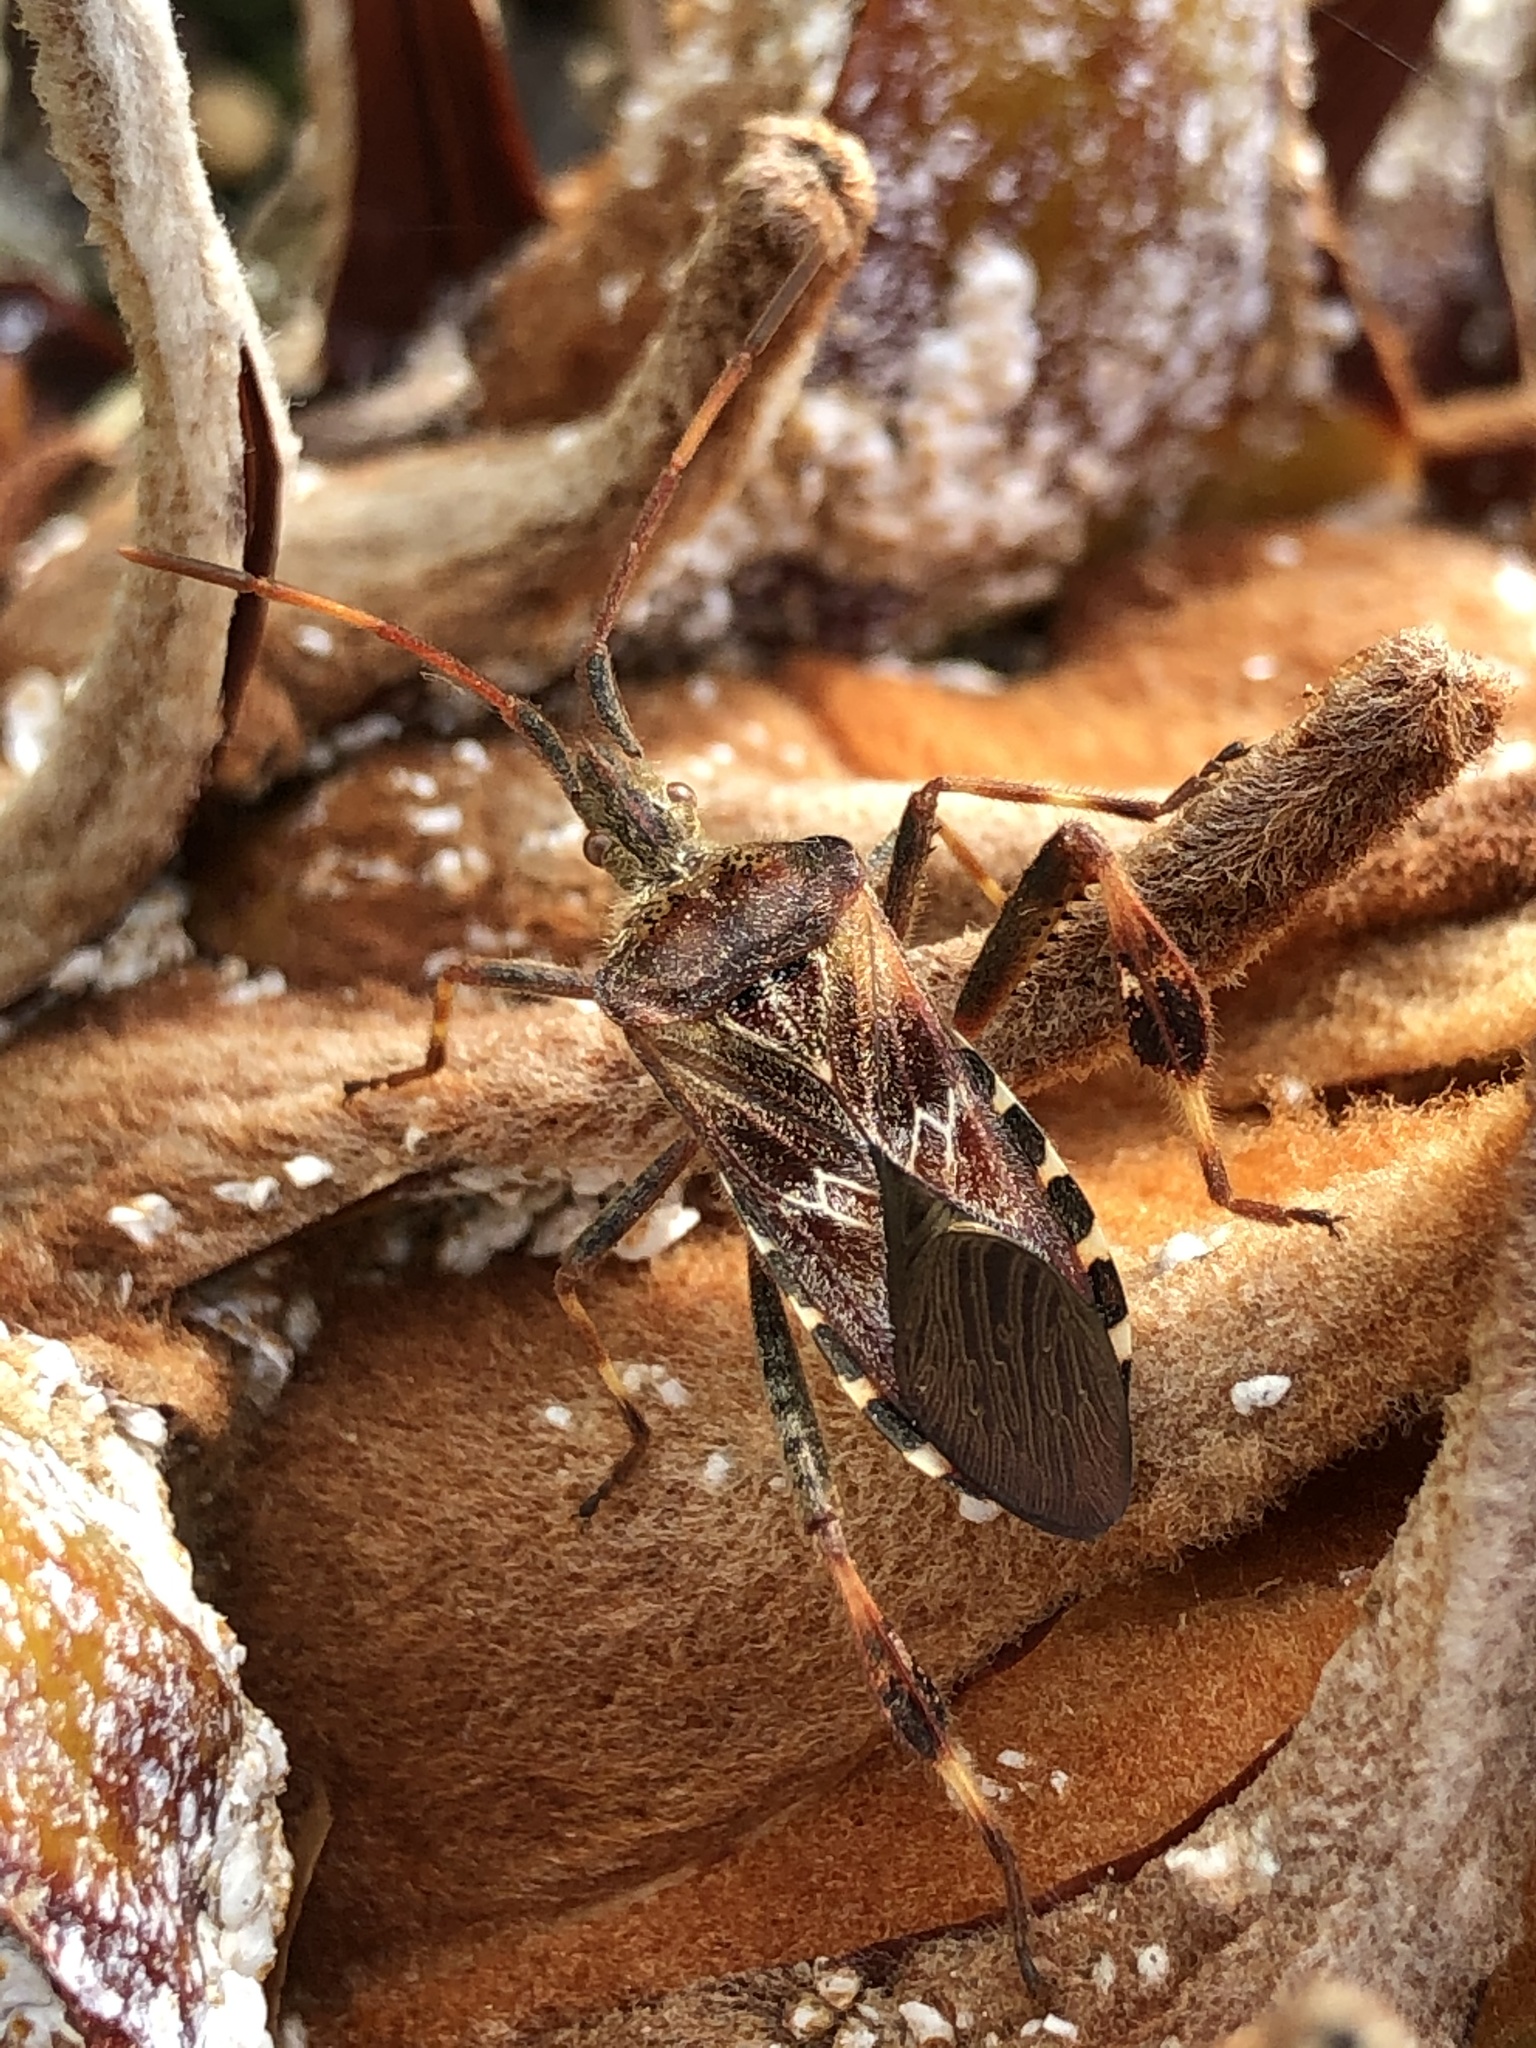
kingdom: Animalia
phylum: Arthropoda
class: Insecta
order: Hemiptera
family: Coreidae
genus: Leptoglossus
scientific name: Leptoglossus occidentalis
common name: Western conifer-seed bug
